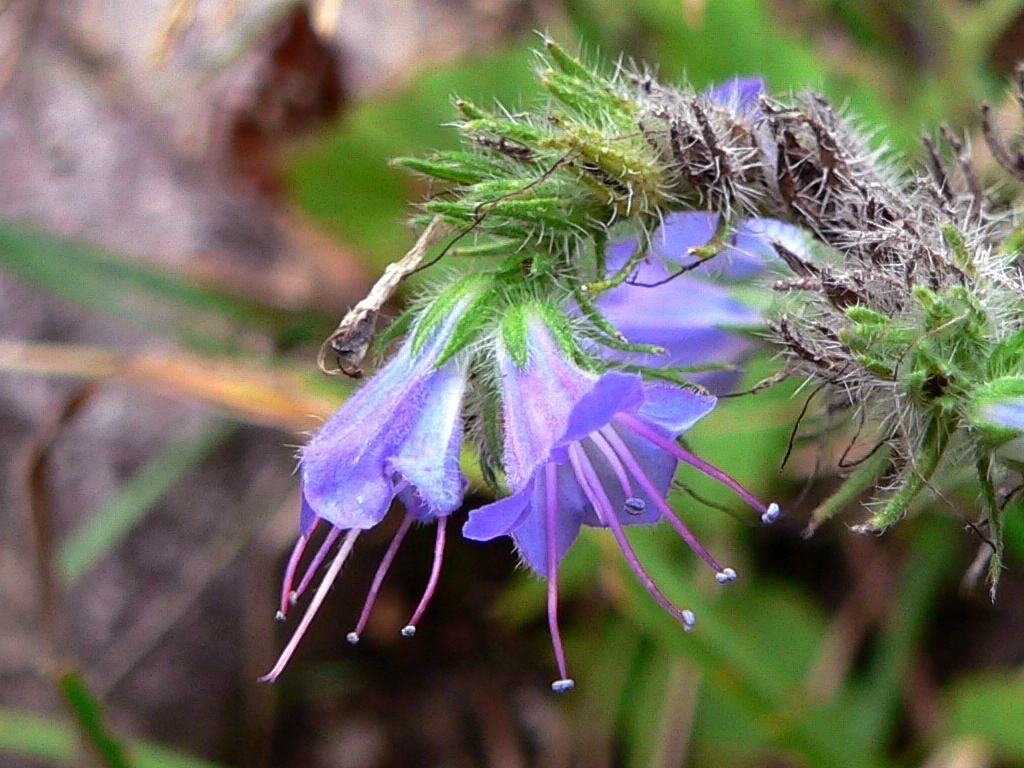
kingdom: Plantae
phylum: Tracheophyta
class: Magnoliopsida
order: Boraginales
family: Boraginaceae
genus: Echium
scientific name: Echium vulgare
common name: Common viper's bugloss
